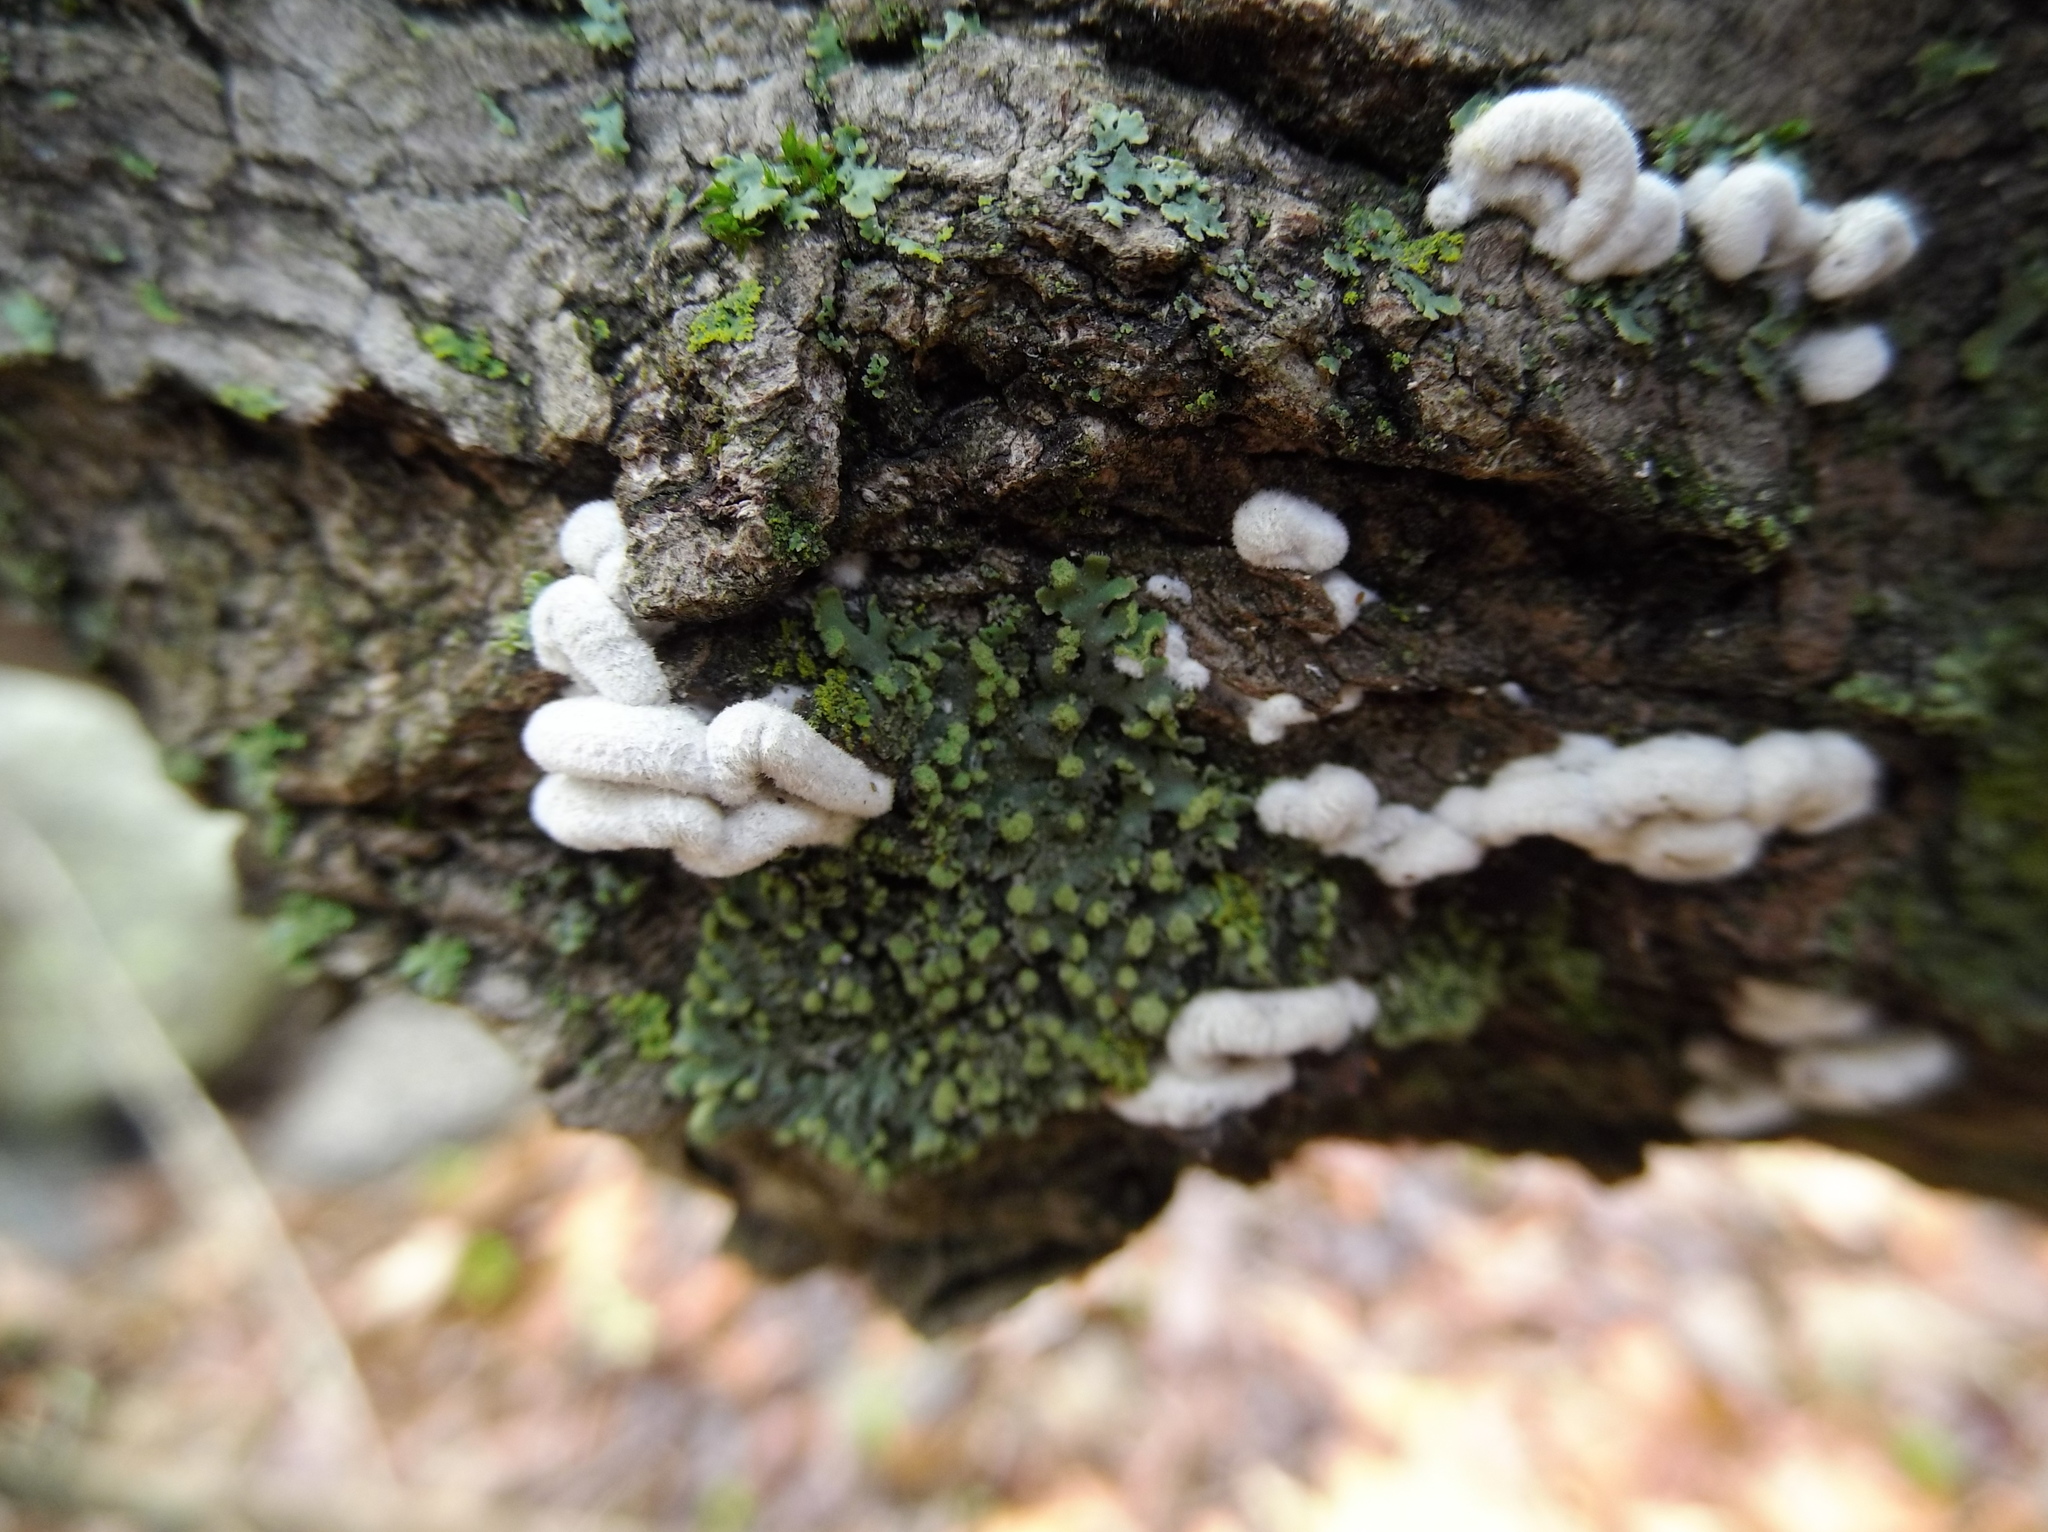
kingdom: Fungi
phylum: Basidiomycota
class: Agaricomycetes
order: Agaricales
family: Schizophyllaceae
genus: Schizophyllum
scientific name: Schizophyllum commune
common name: Common porecrust
